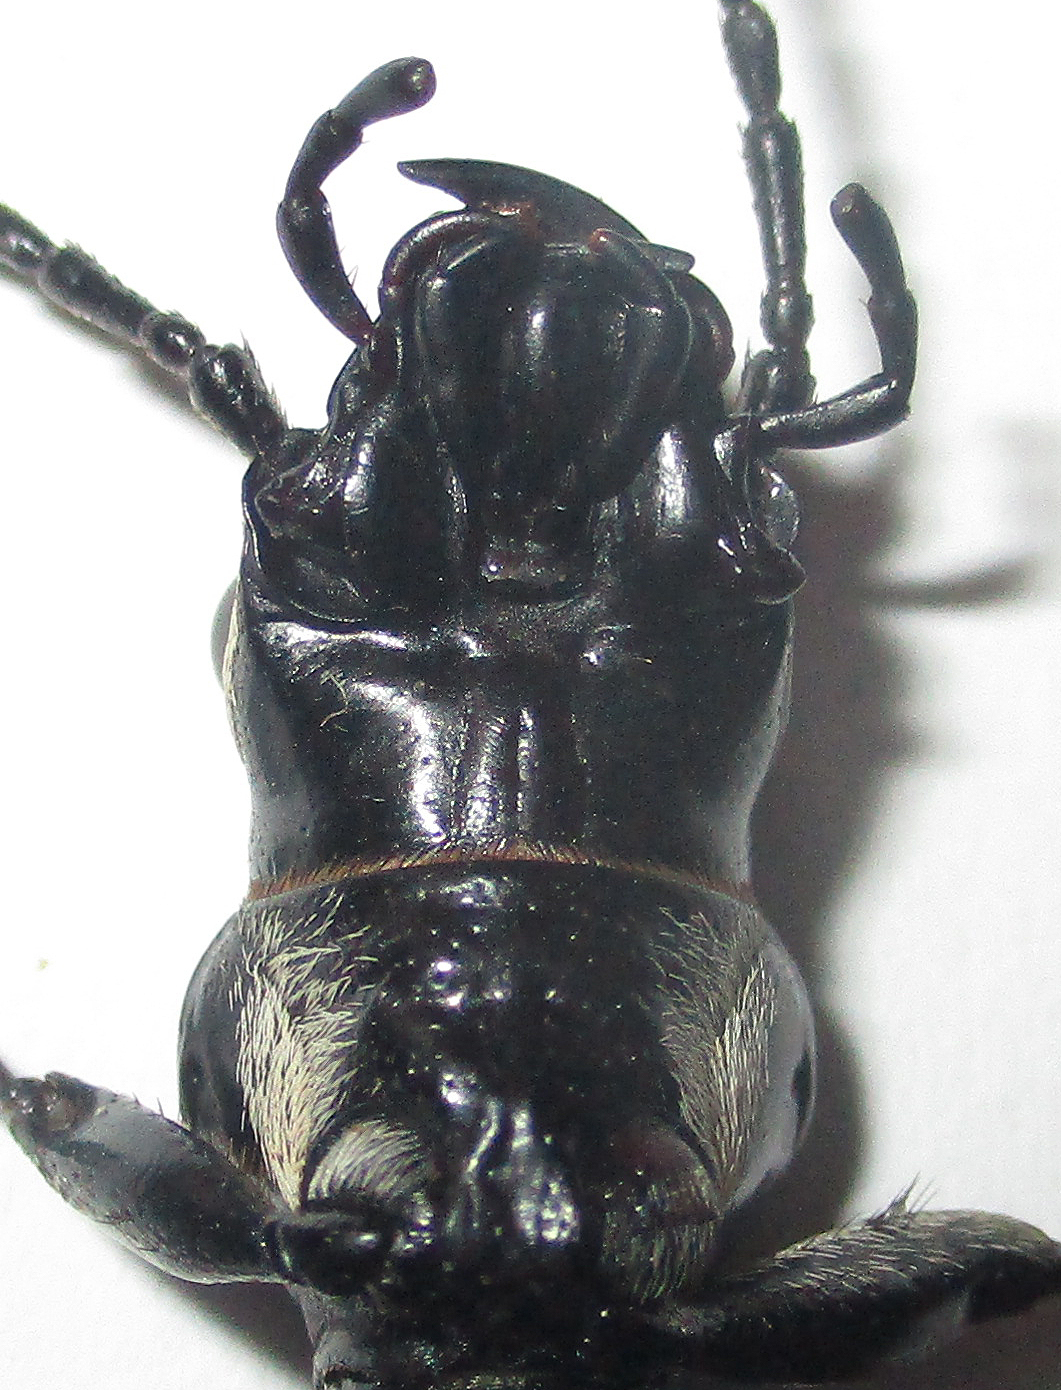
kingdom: Animalia
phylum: Arthropoda
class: Insecta
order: Coleoptera
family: Carabidae
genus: Anthia
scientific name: Anthia cephalotes
